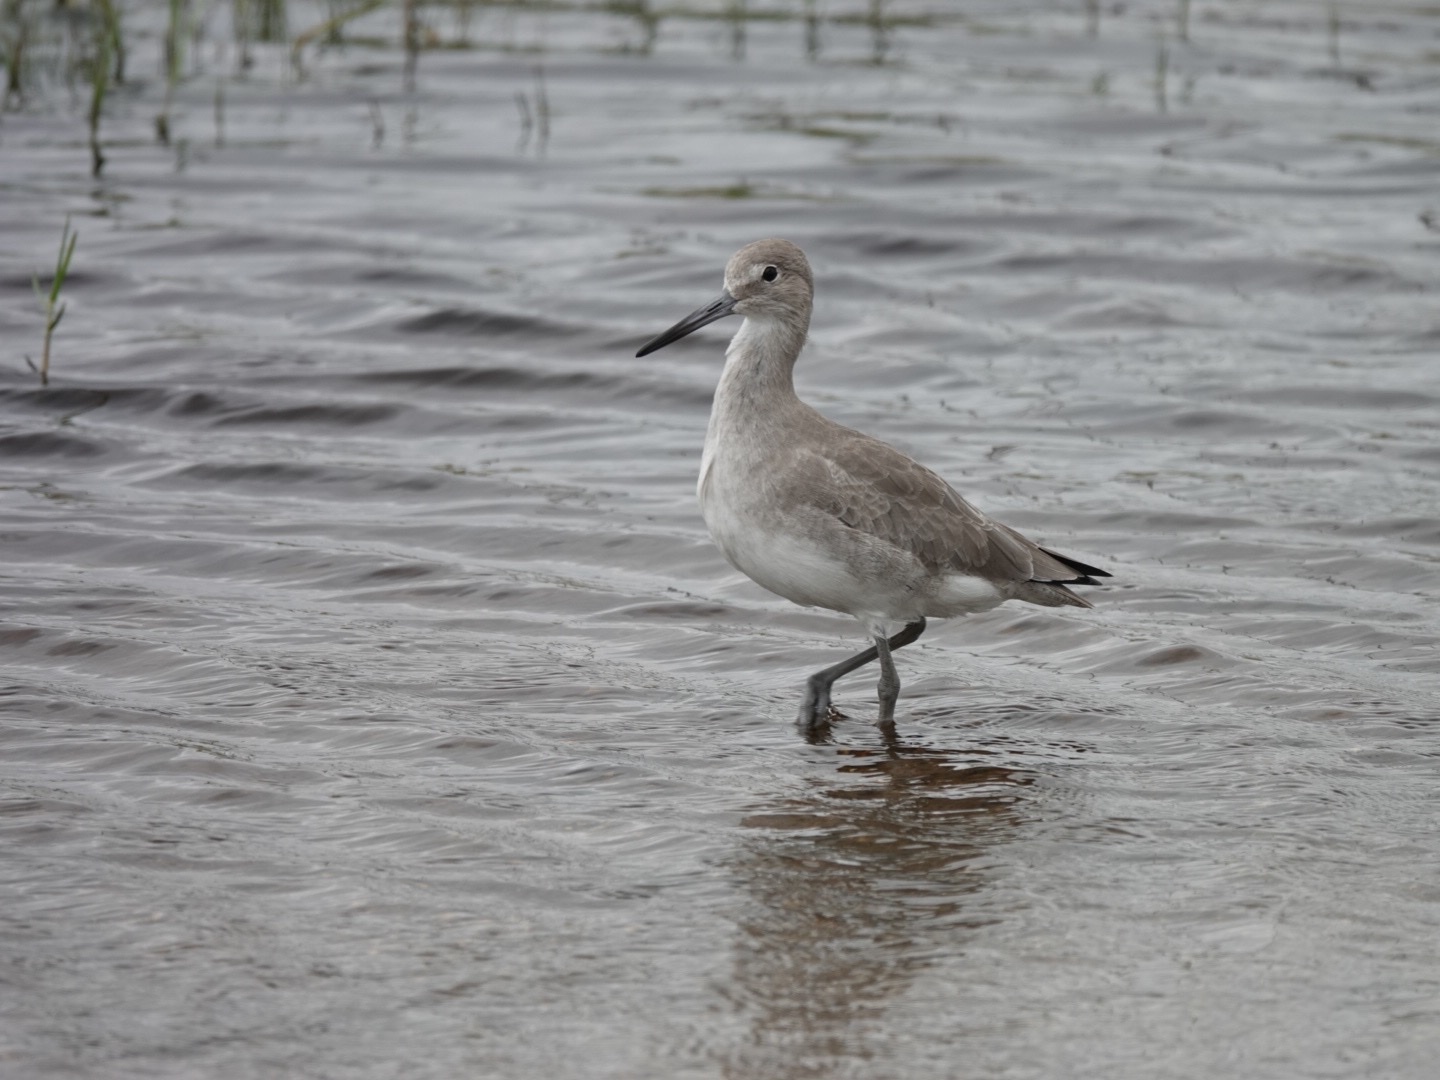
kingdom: Animalia
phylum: Chordata
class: Aves
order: Charadriiformes
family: Scolopacidae
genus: Tringa
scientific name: Tringa semipalmata
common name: Willet
